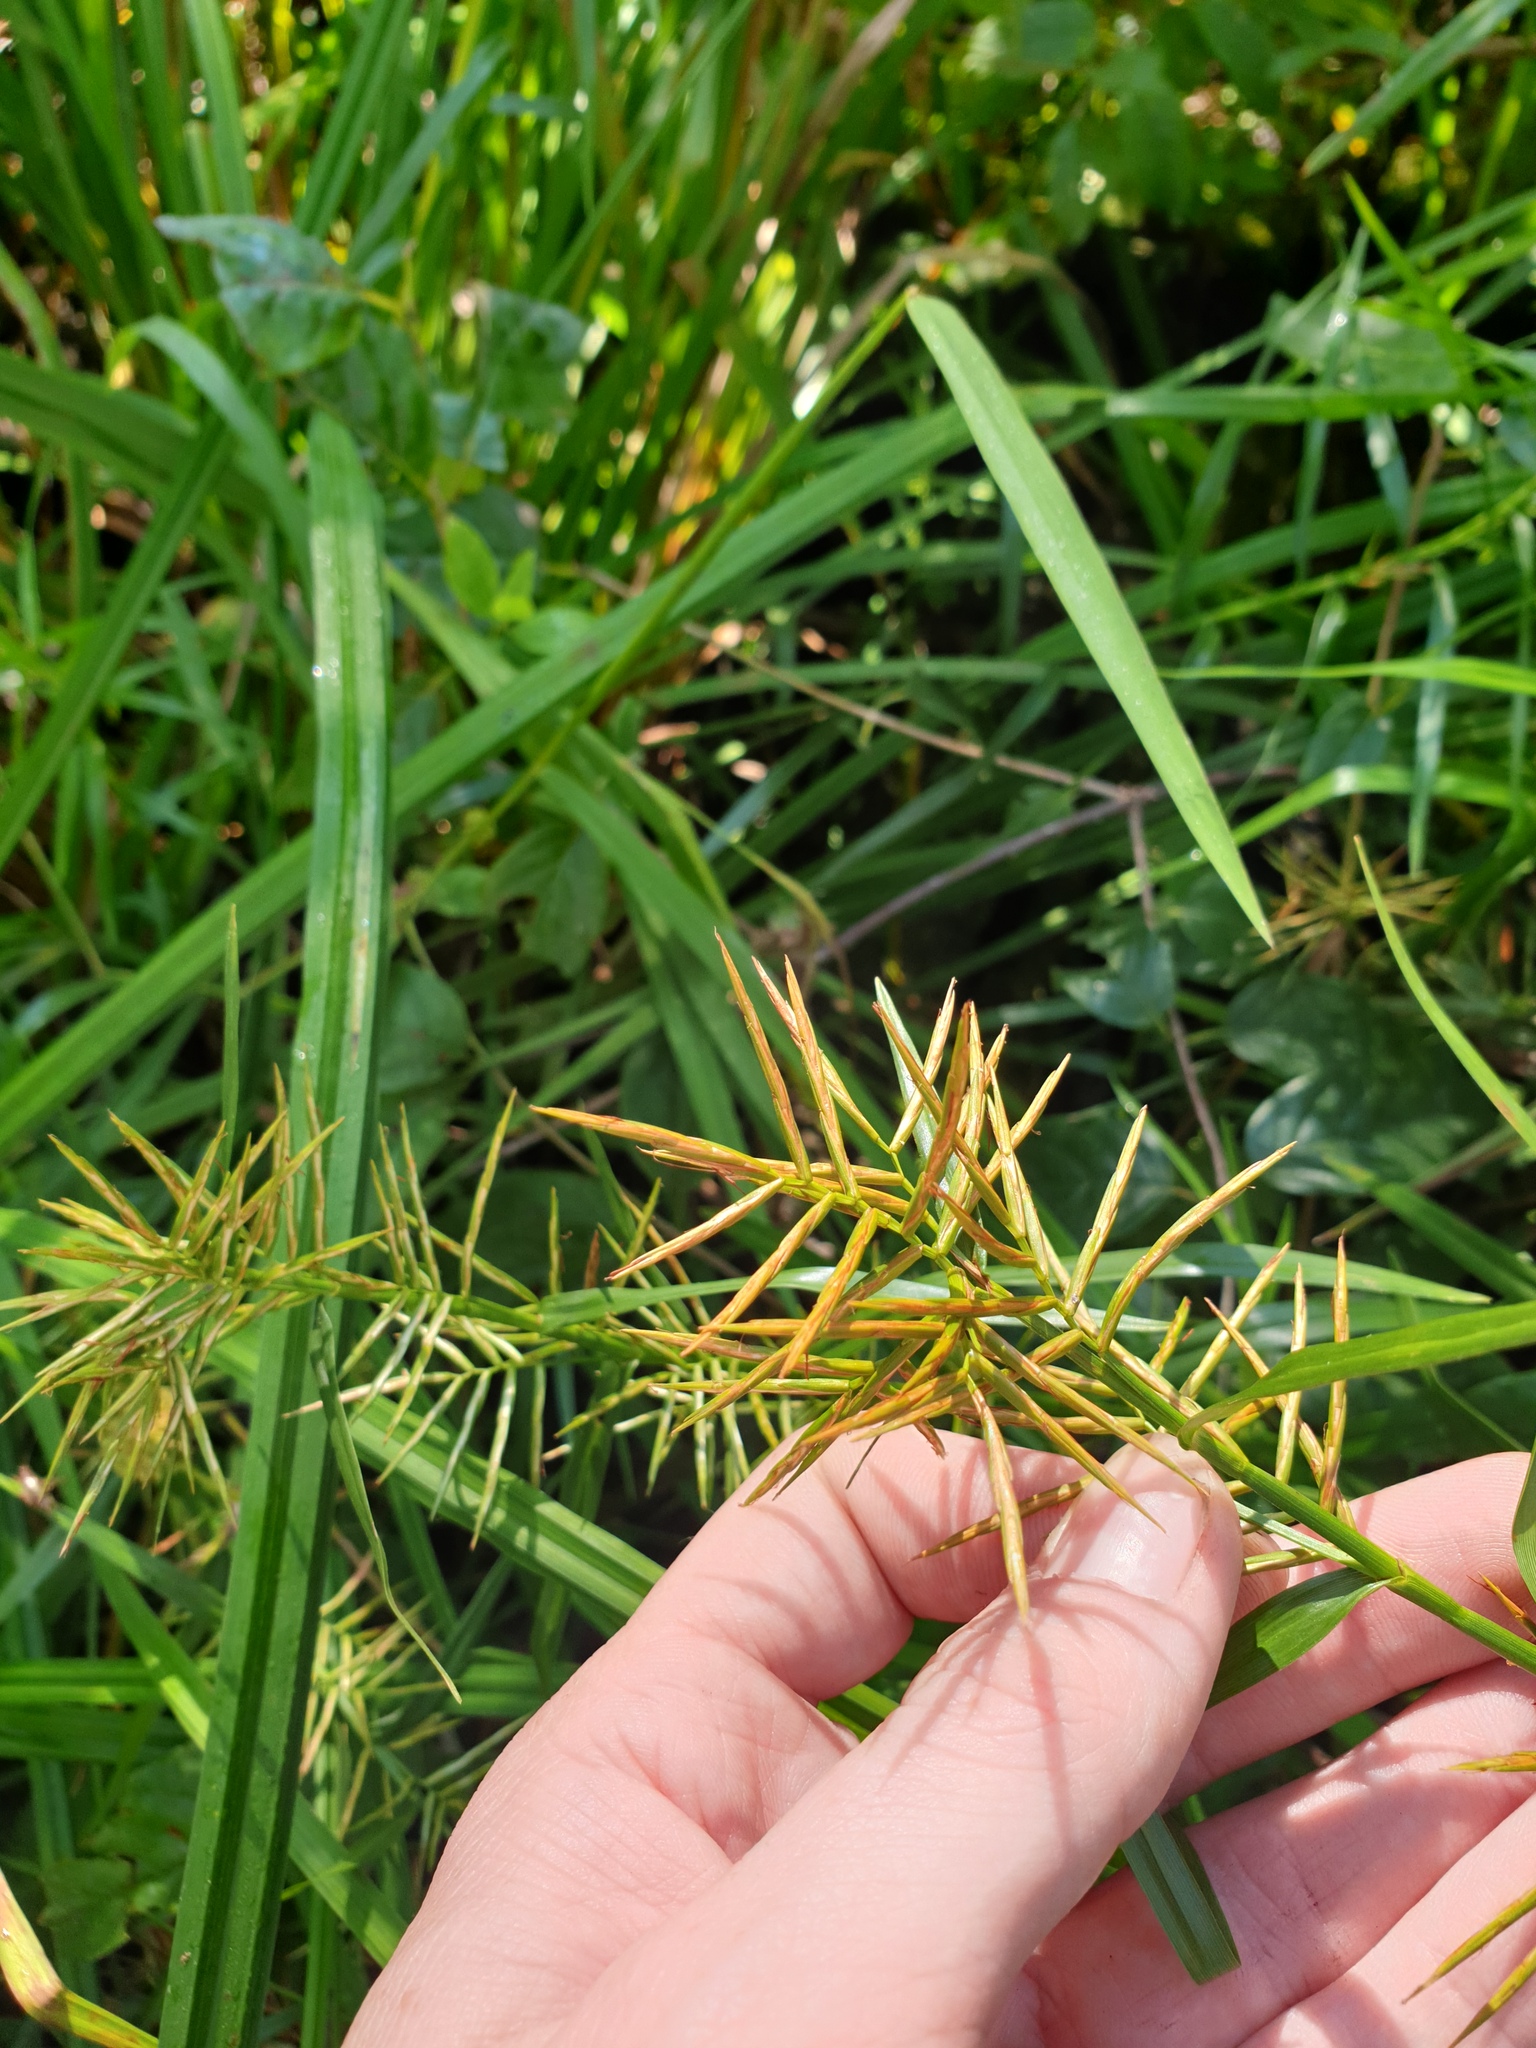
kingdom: Plantae
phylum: Tracheophyta
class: Liliopsida
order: Poales
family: Cyperaceae
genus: Dulichium
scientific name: Dulichium arundinaceum
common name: Three-way sedge
